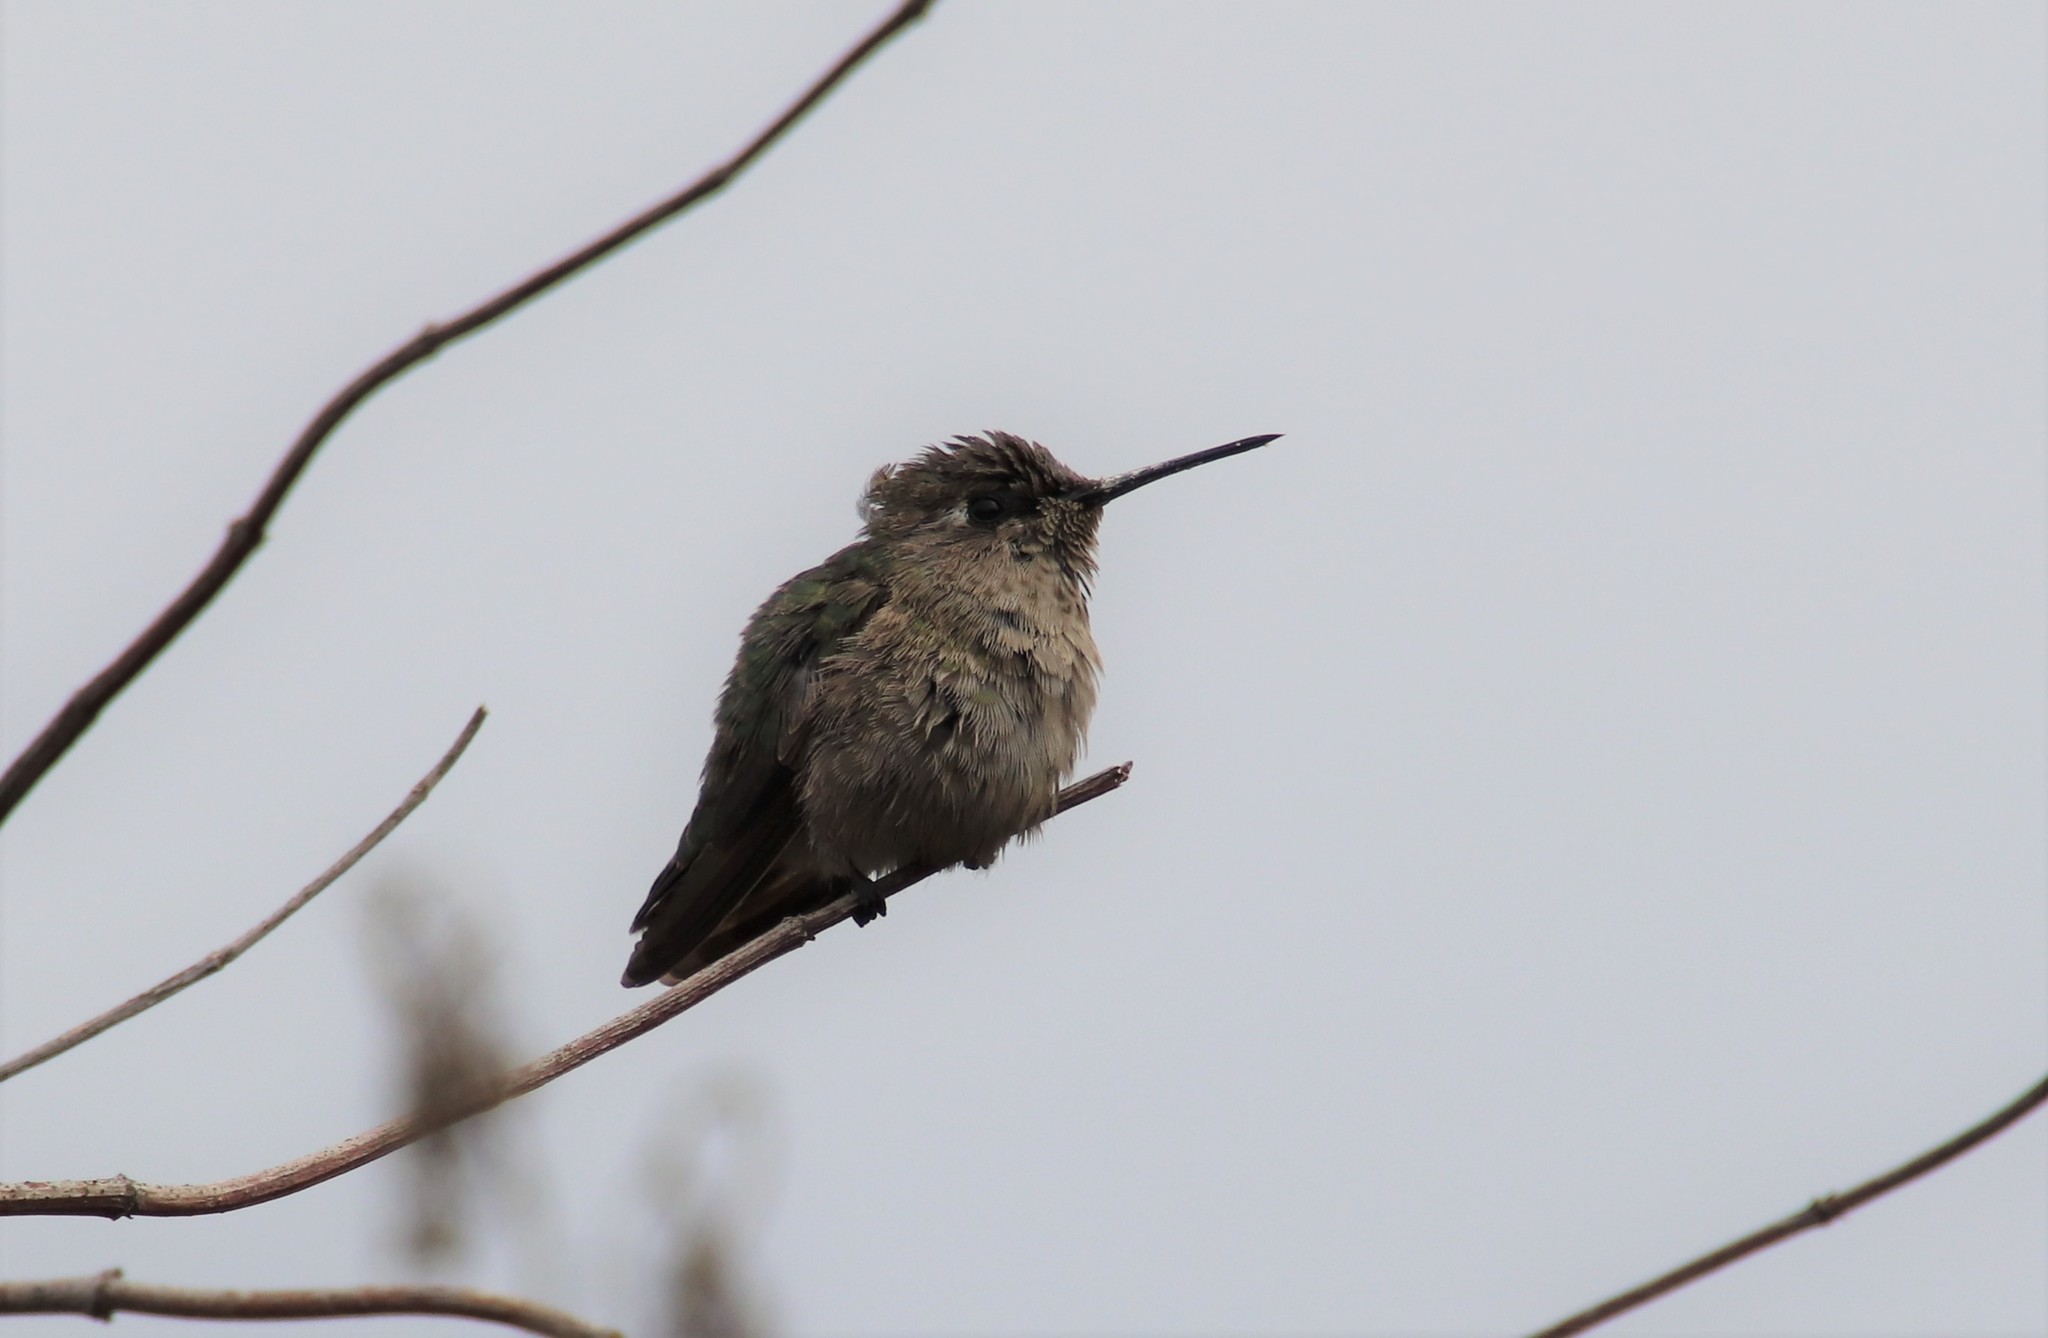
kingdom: Animalia
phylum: Chordata
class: Aves
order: Apodiformes
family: Trochilidae
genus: Calypte
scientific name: Calypte anna
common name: Anna's hummingbird
